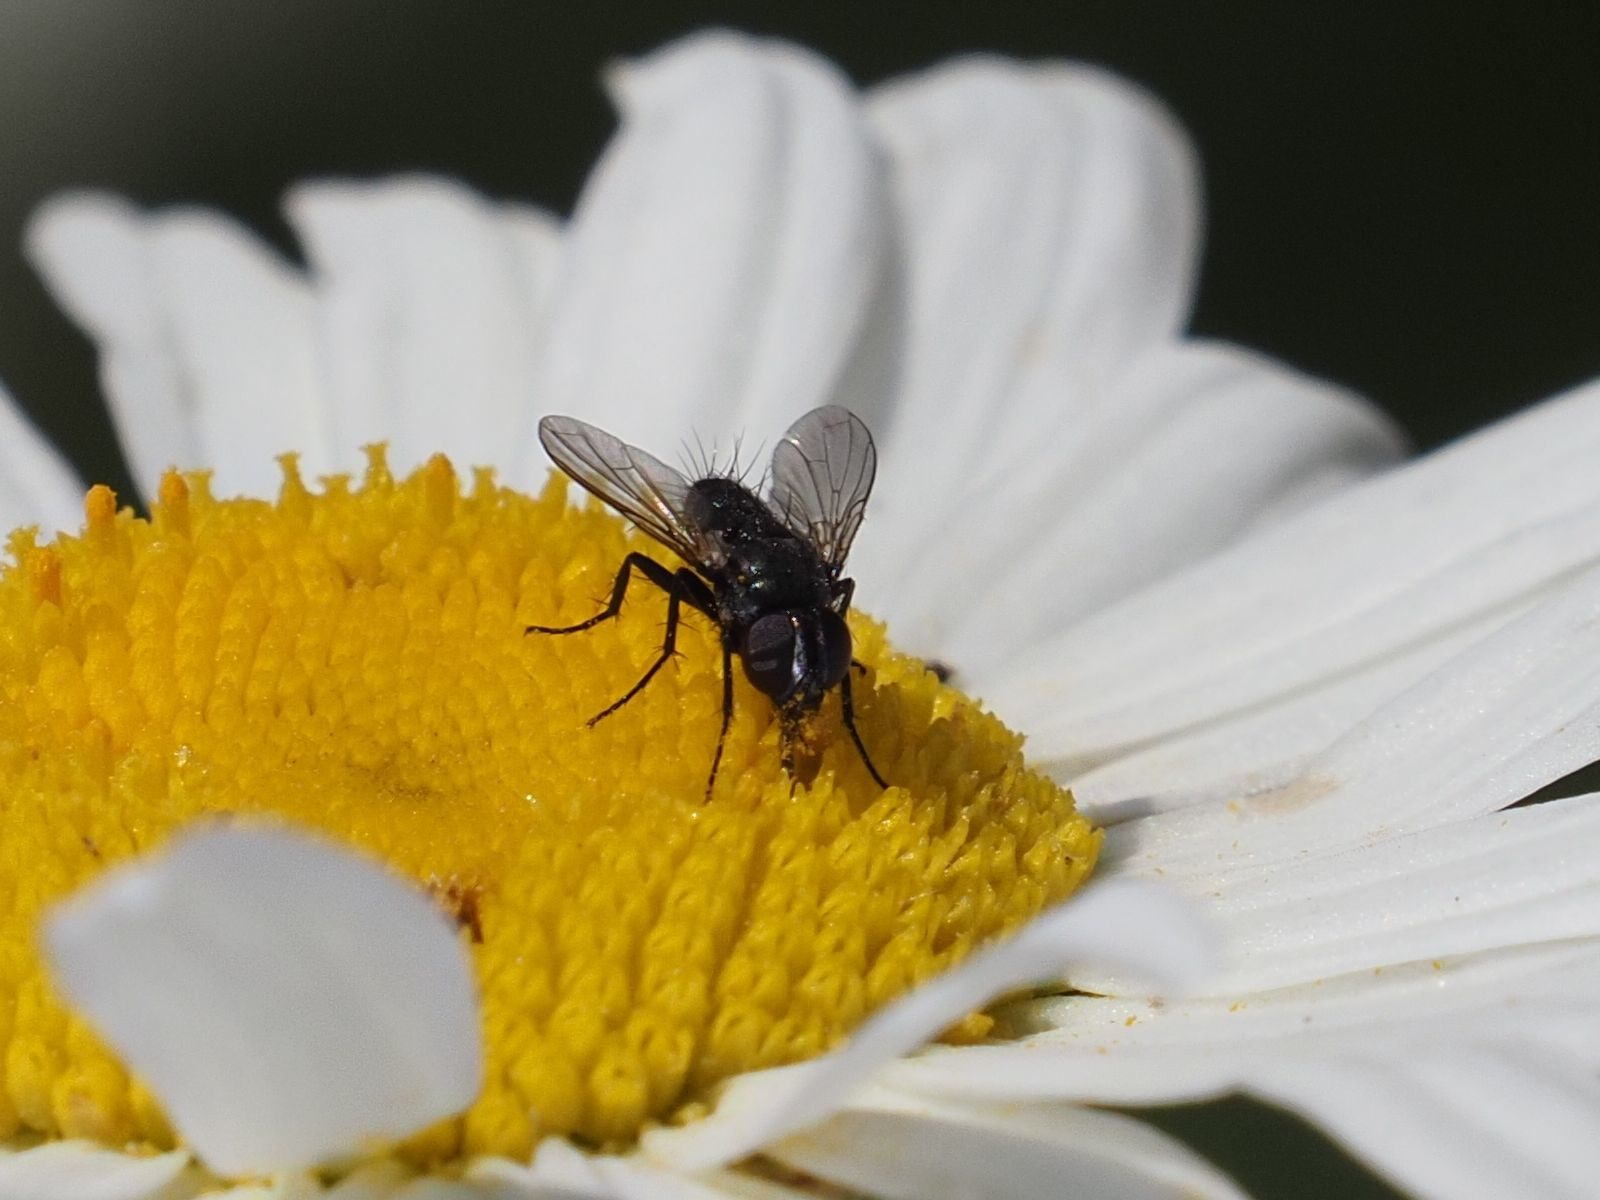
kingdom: Animalia
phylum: Arthropoda
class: Insecta
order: Diptera
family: Calliphoridae
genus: Rhinophora
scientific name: Rhinophora lepida
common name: Pouting woodlouse-fly
